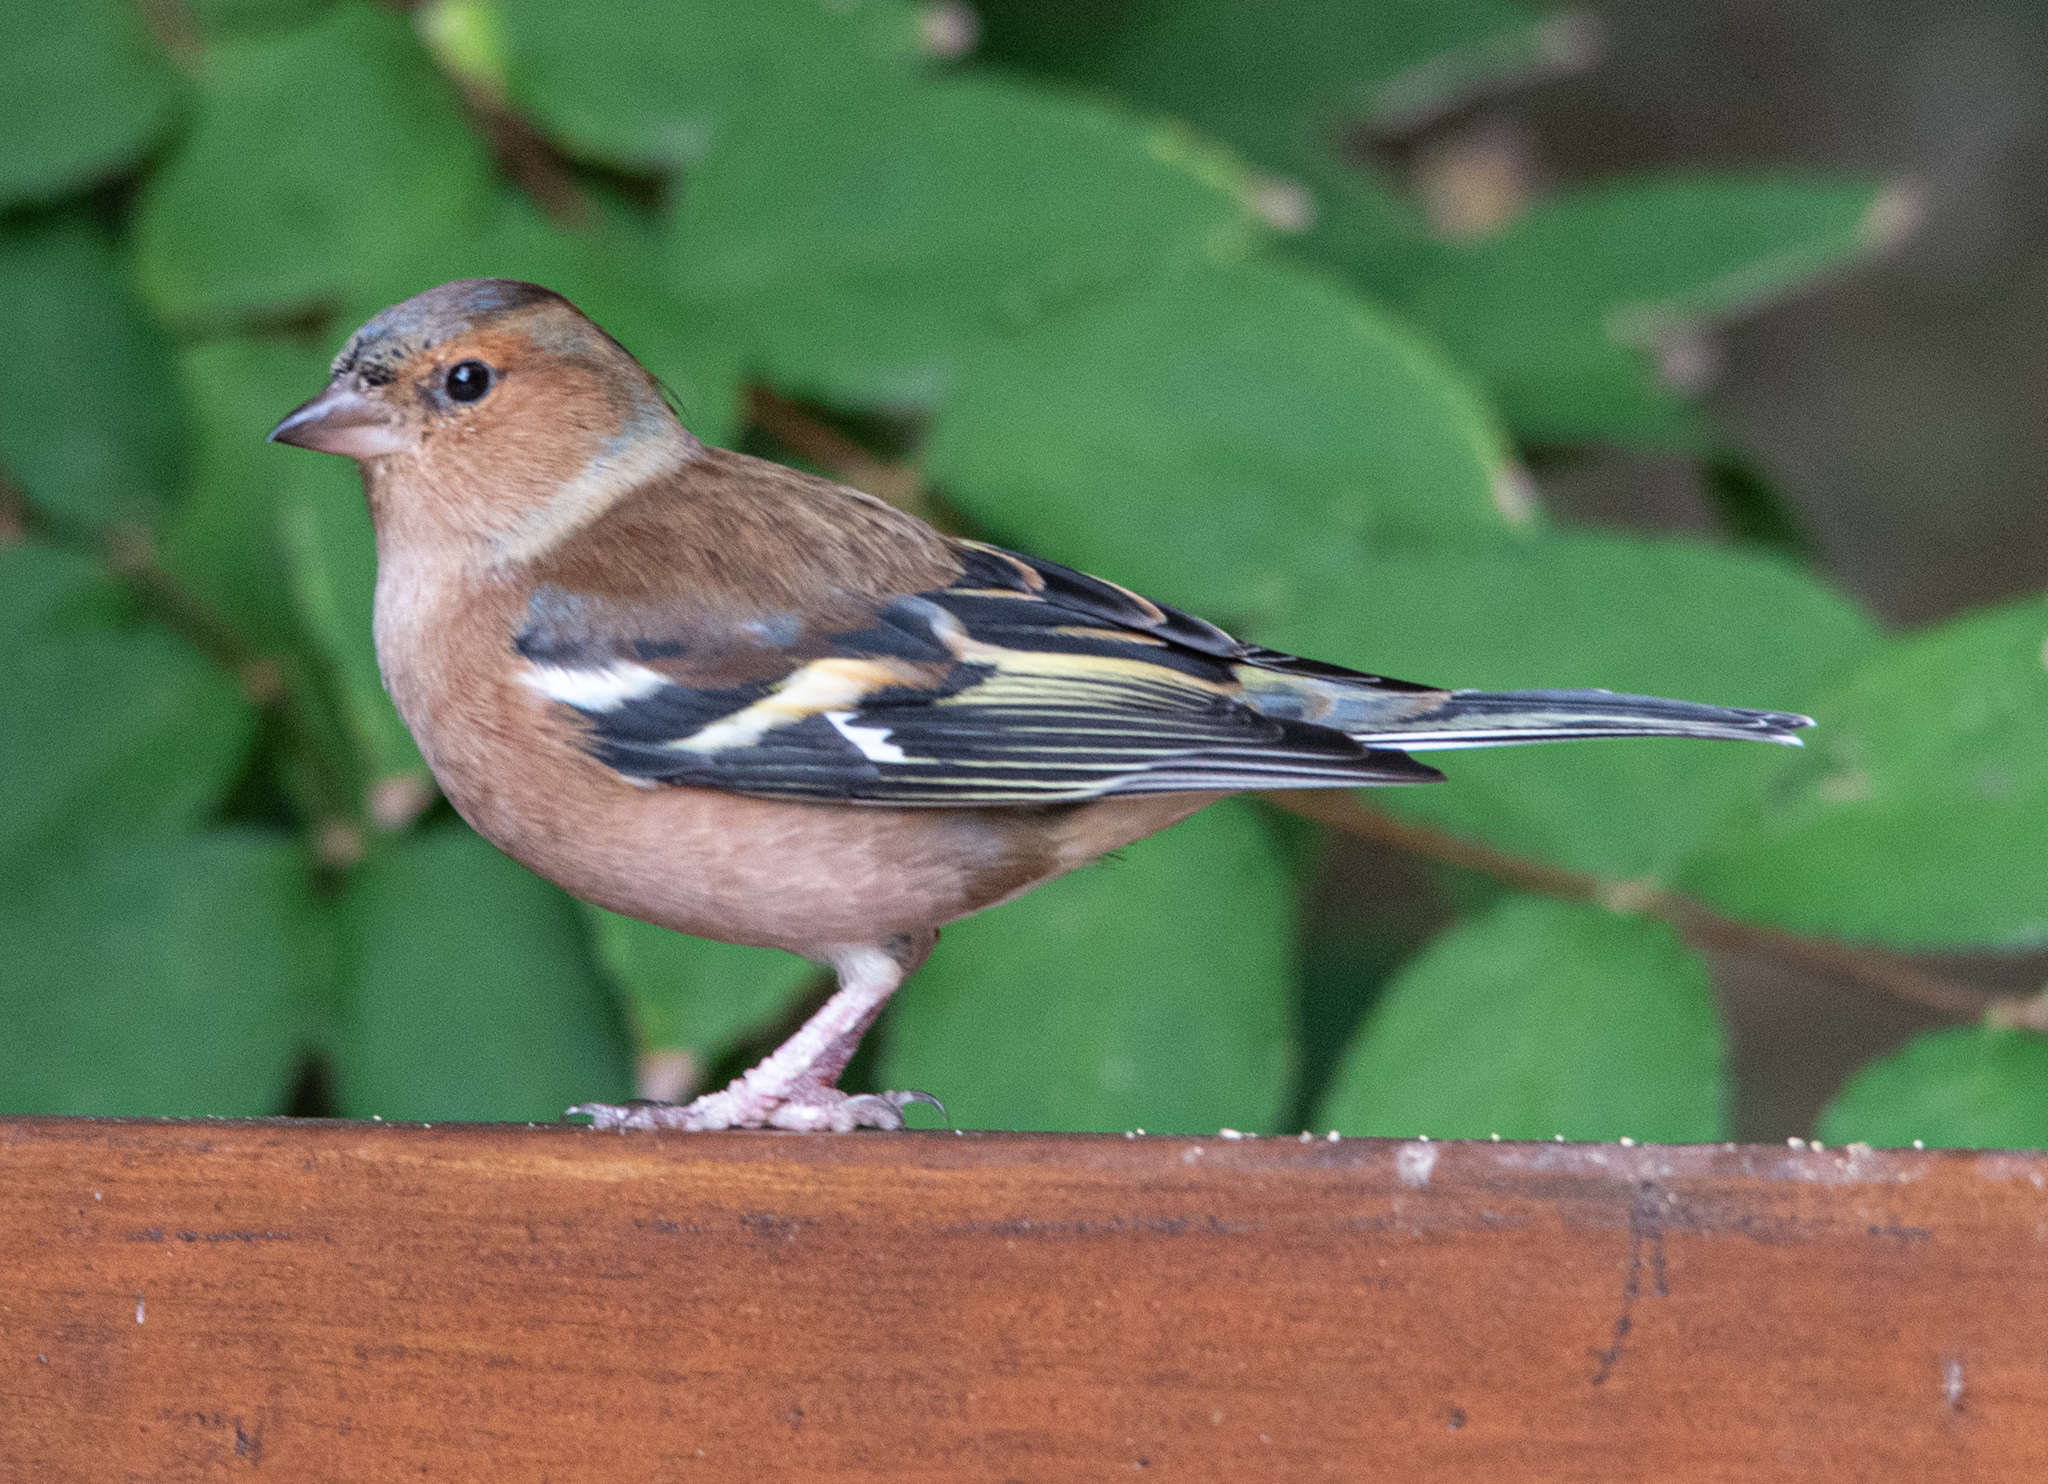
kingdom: Animalia
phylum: Chordata
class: Aves
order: Passeriformes
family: Fringillidae
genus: Fringilla
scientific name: Fringilla coelebs
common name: Common chaffinch
